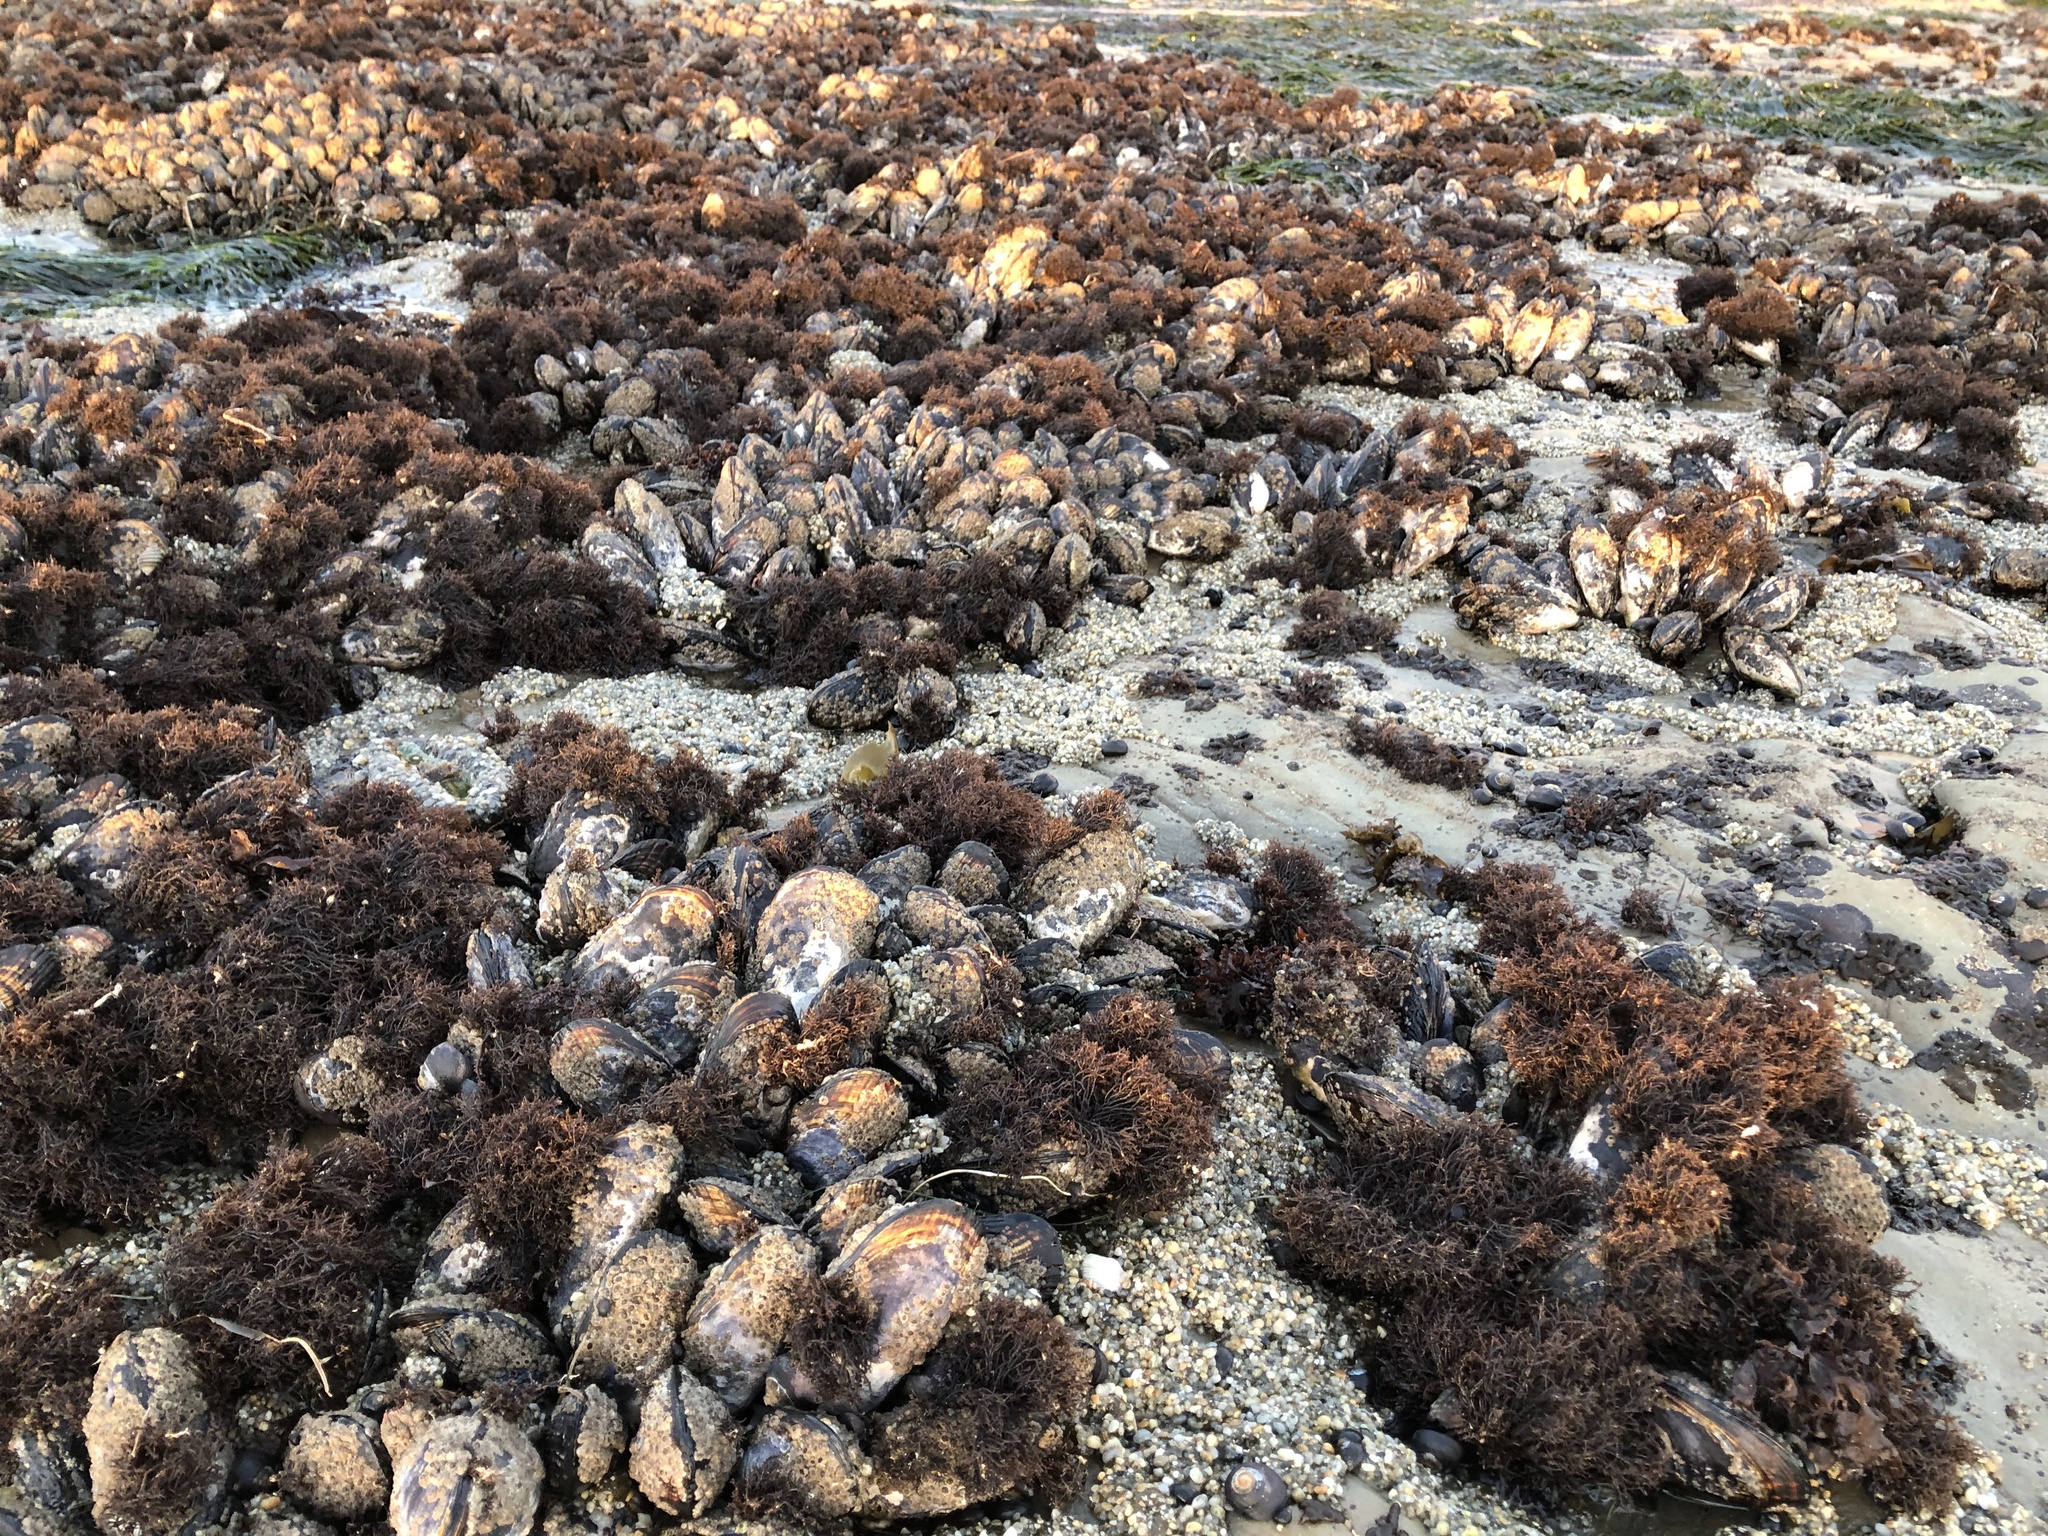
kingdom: Plantae
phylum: Rhodophyta
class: Florideophyceae
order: Gigartinales
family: Endocladiaceae
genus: Endocladia
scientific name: Endocladia muricata
